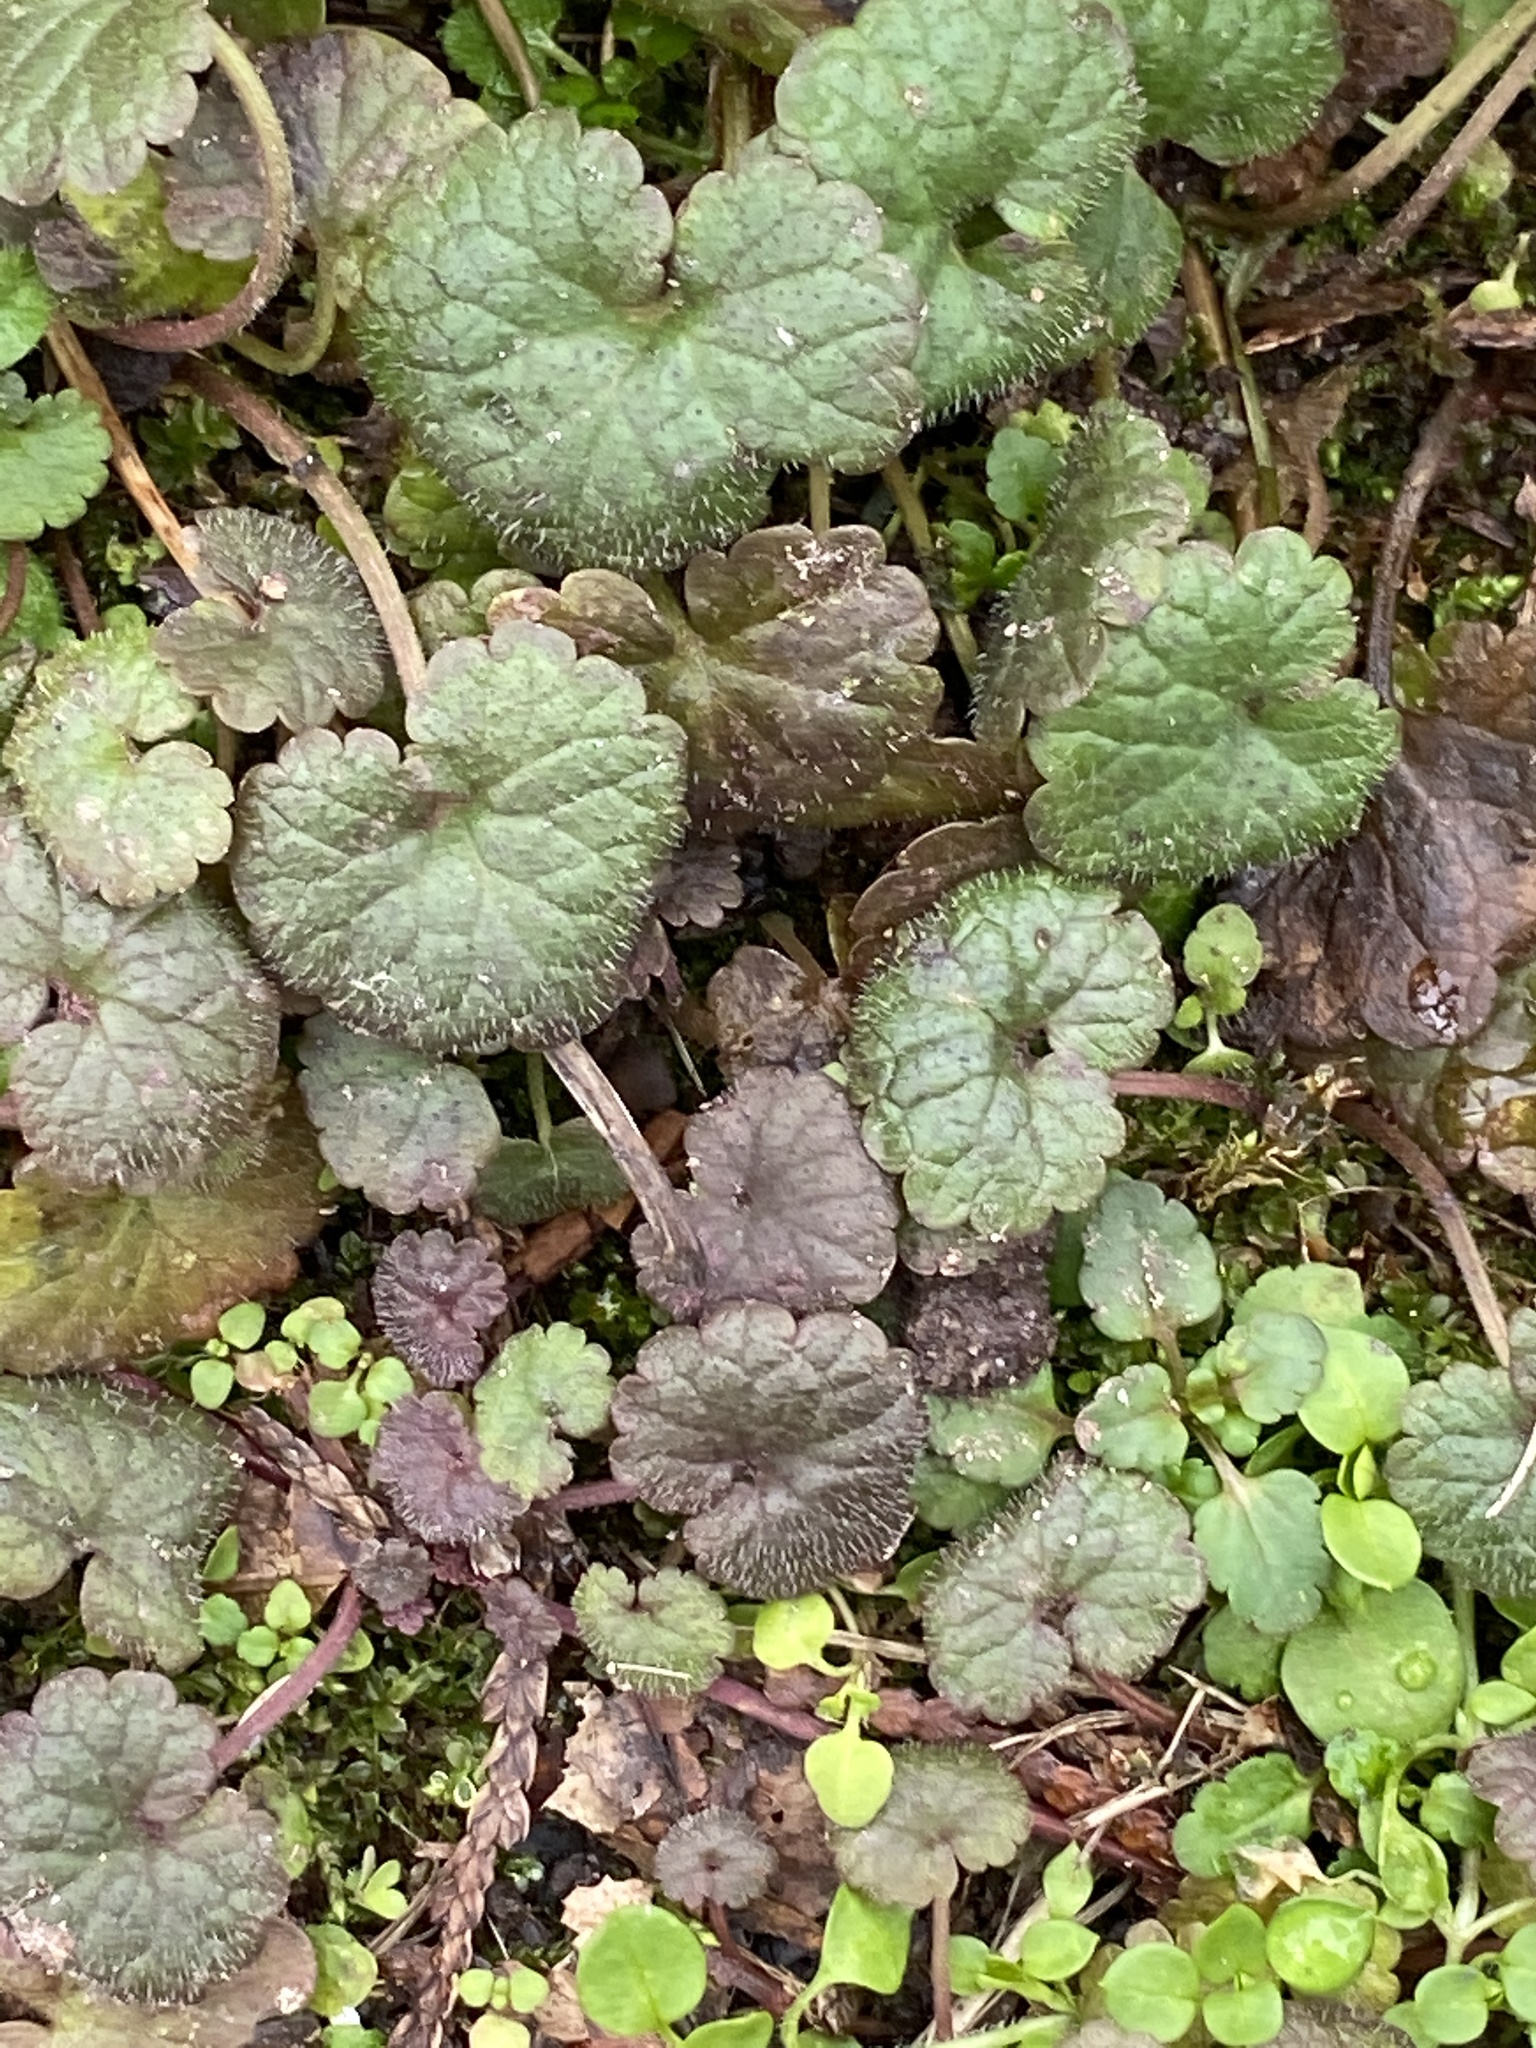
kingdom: Plantae
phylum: Tracheophyta
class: Magnoliopsida
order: Lamiales
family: Lamiaceae
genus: Glechoma
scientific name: Glechoma hederacea
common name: Ground ivy
